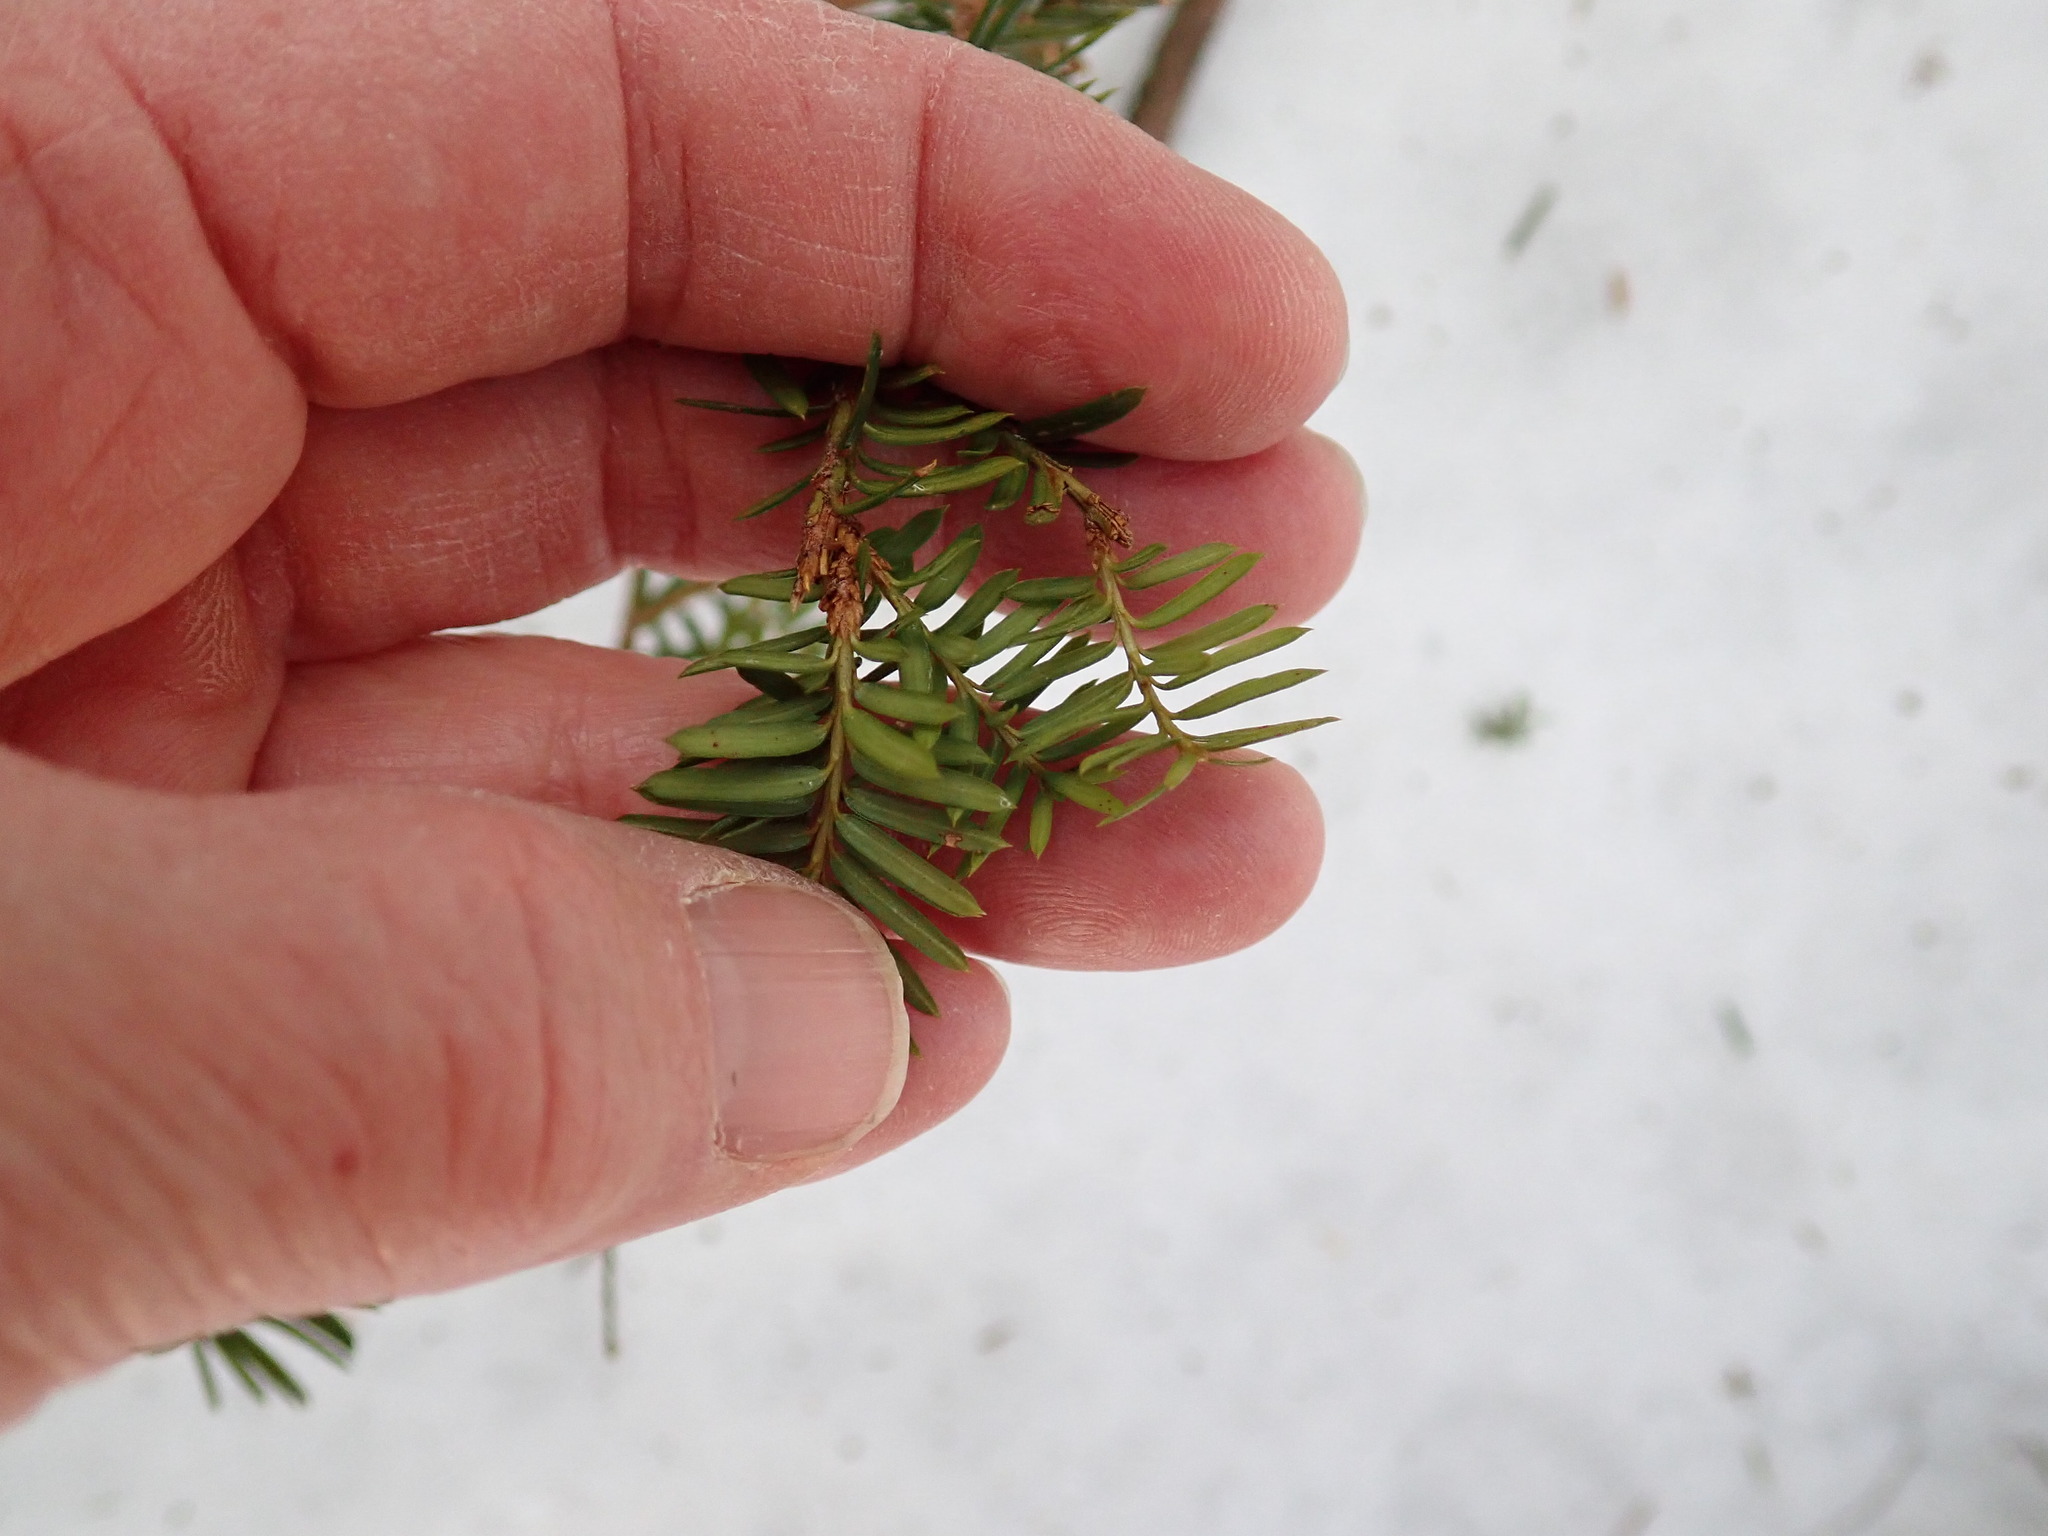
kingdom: Plantae
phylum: Tracheophyta
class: Pinopsida
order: Pinales
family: Taxaceae
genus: Taxus
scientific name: Taxus canadensis
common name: American yew
